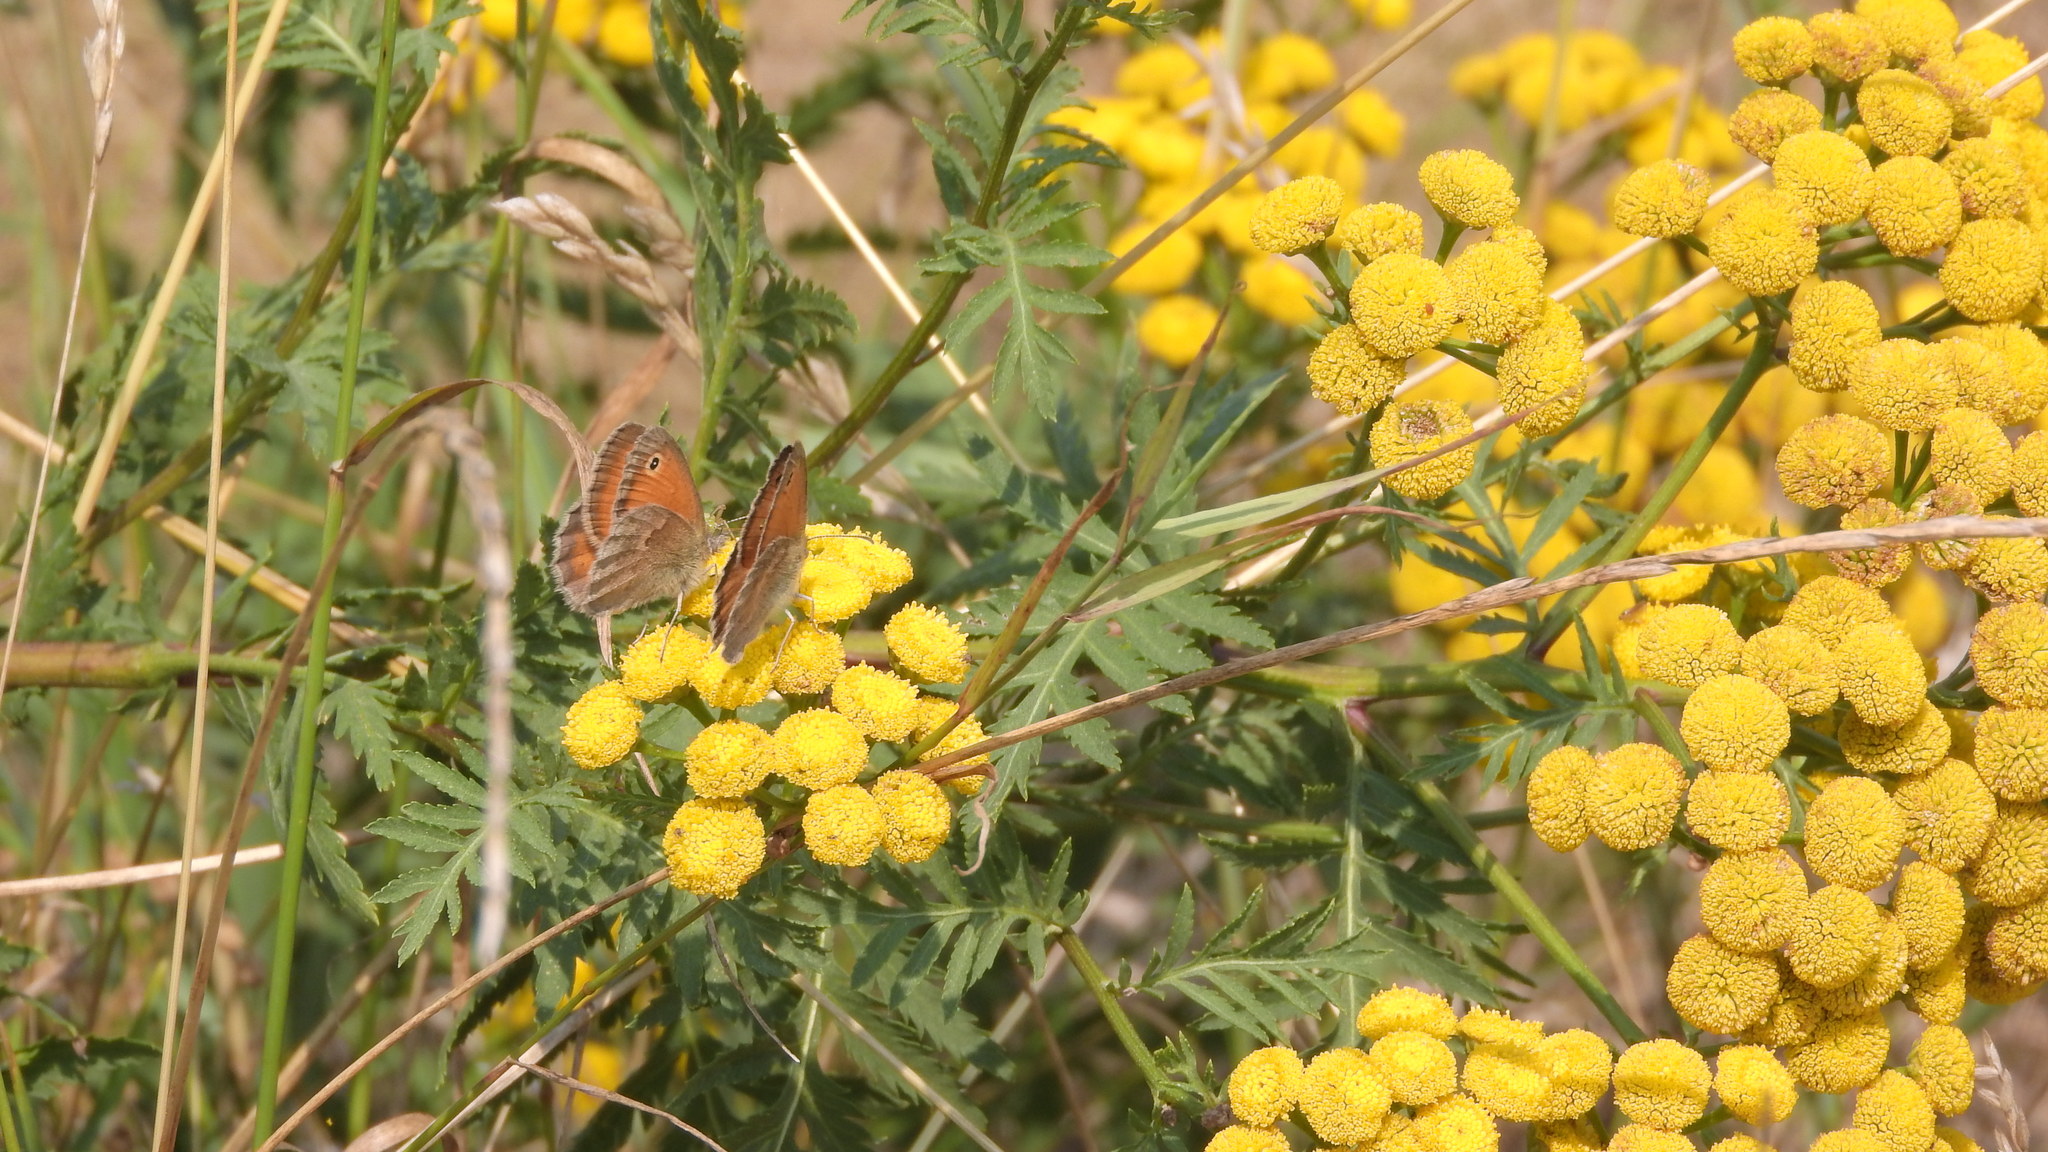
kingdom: Animalia
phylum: Arthropoda
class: Insecta
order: Lepidoptera
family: Nymphalidae
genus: Coenonympha
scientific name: Coenonympha pamphilus
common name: Small heath
